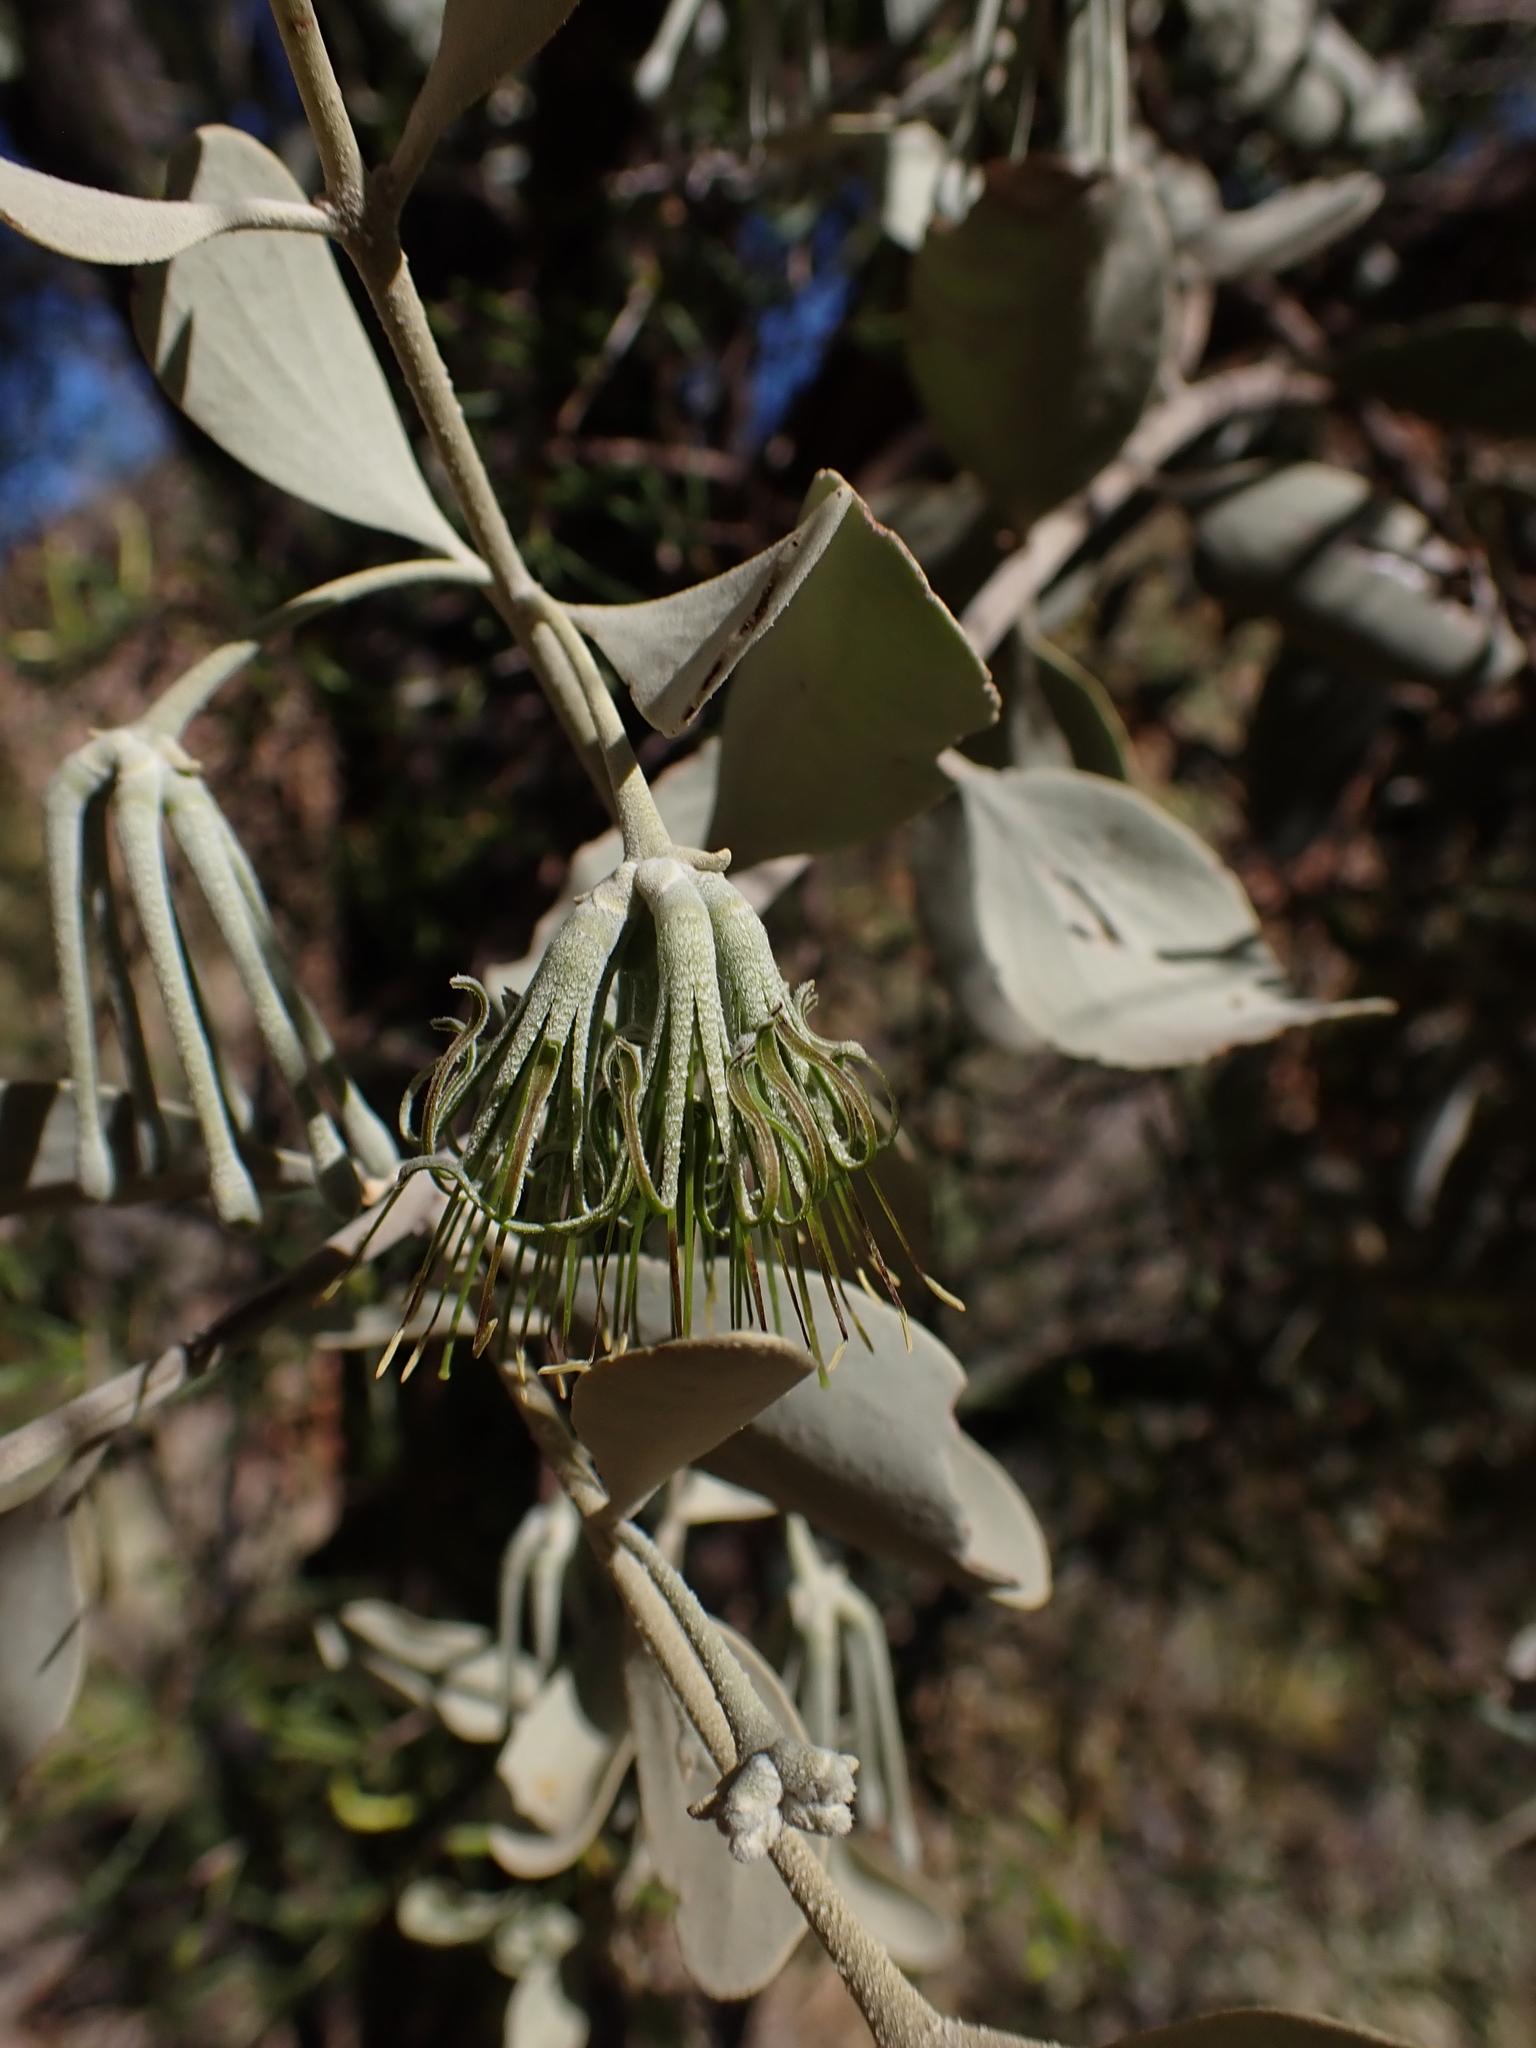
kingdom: Plantae
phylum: Tracheophyta
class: Magnoliopsida
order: Santalales
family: Loranthaceae
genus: Amyema
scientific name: Amyema maidenii
